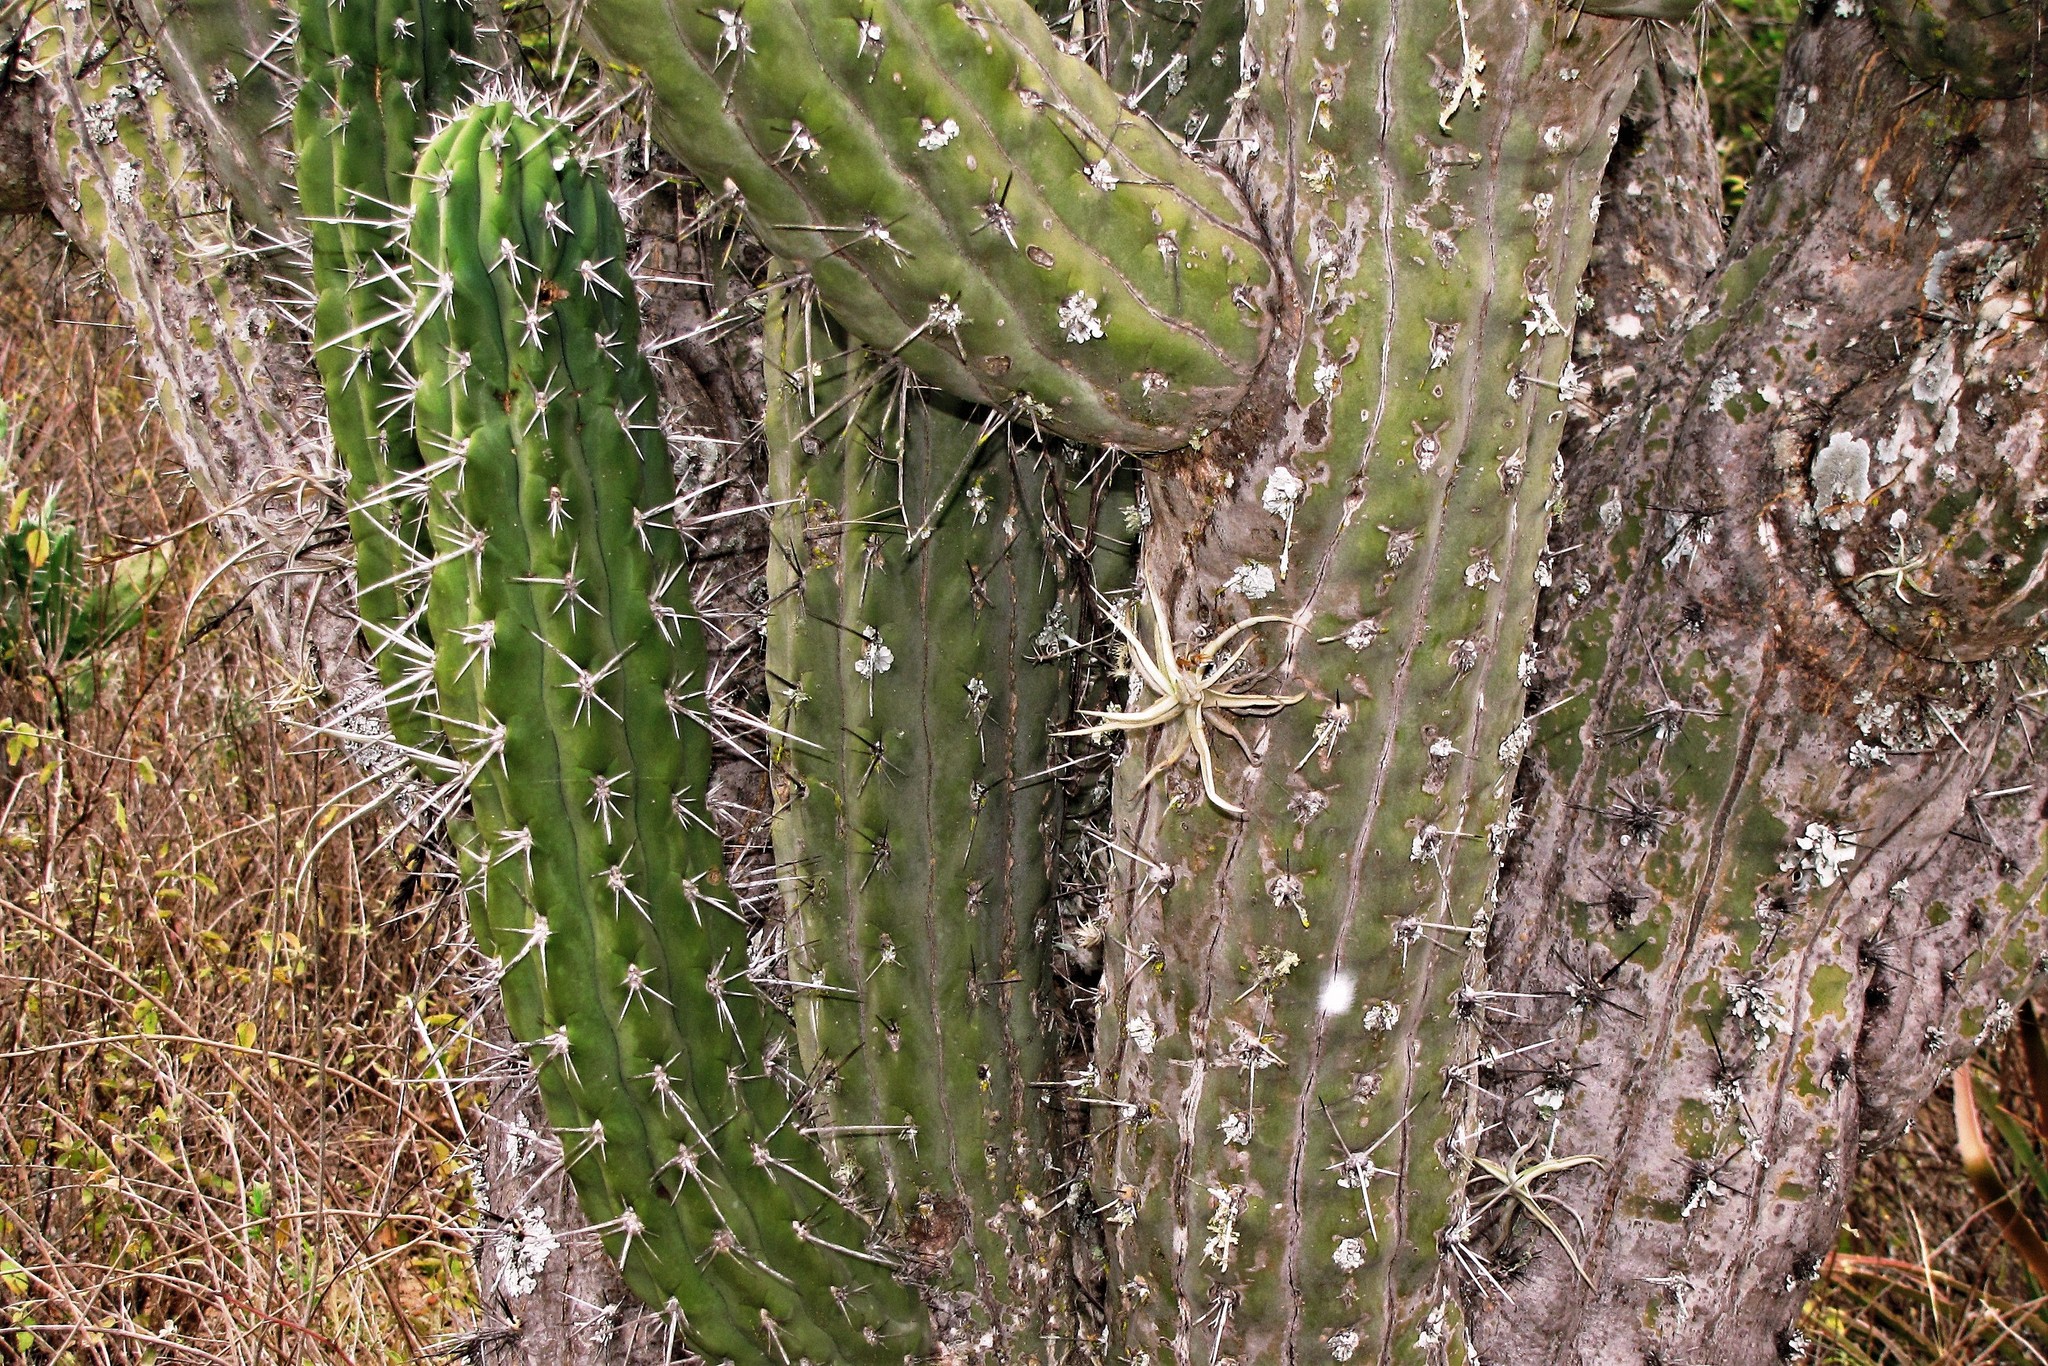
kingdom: Plantae
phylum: Tracheophyta
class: Magnoliopsida
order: Caryophyllales
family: Cactaceae
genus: Stetsonia
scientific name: Stetsonia coryne
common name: Toothpick cactus
